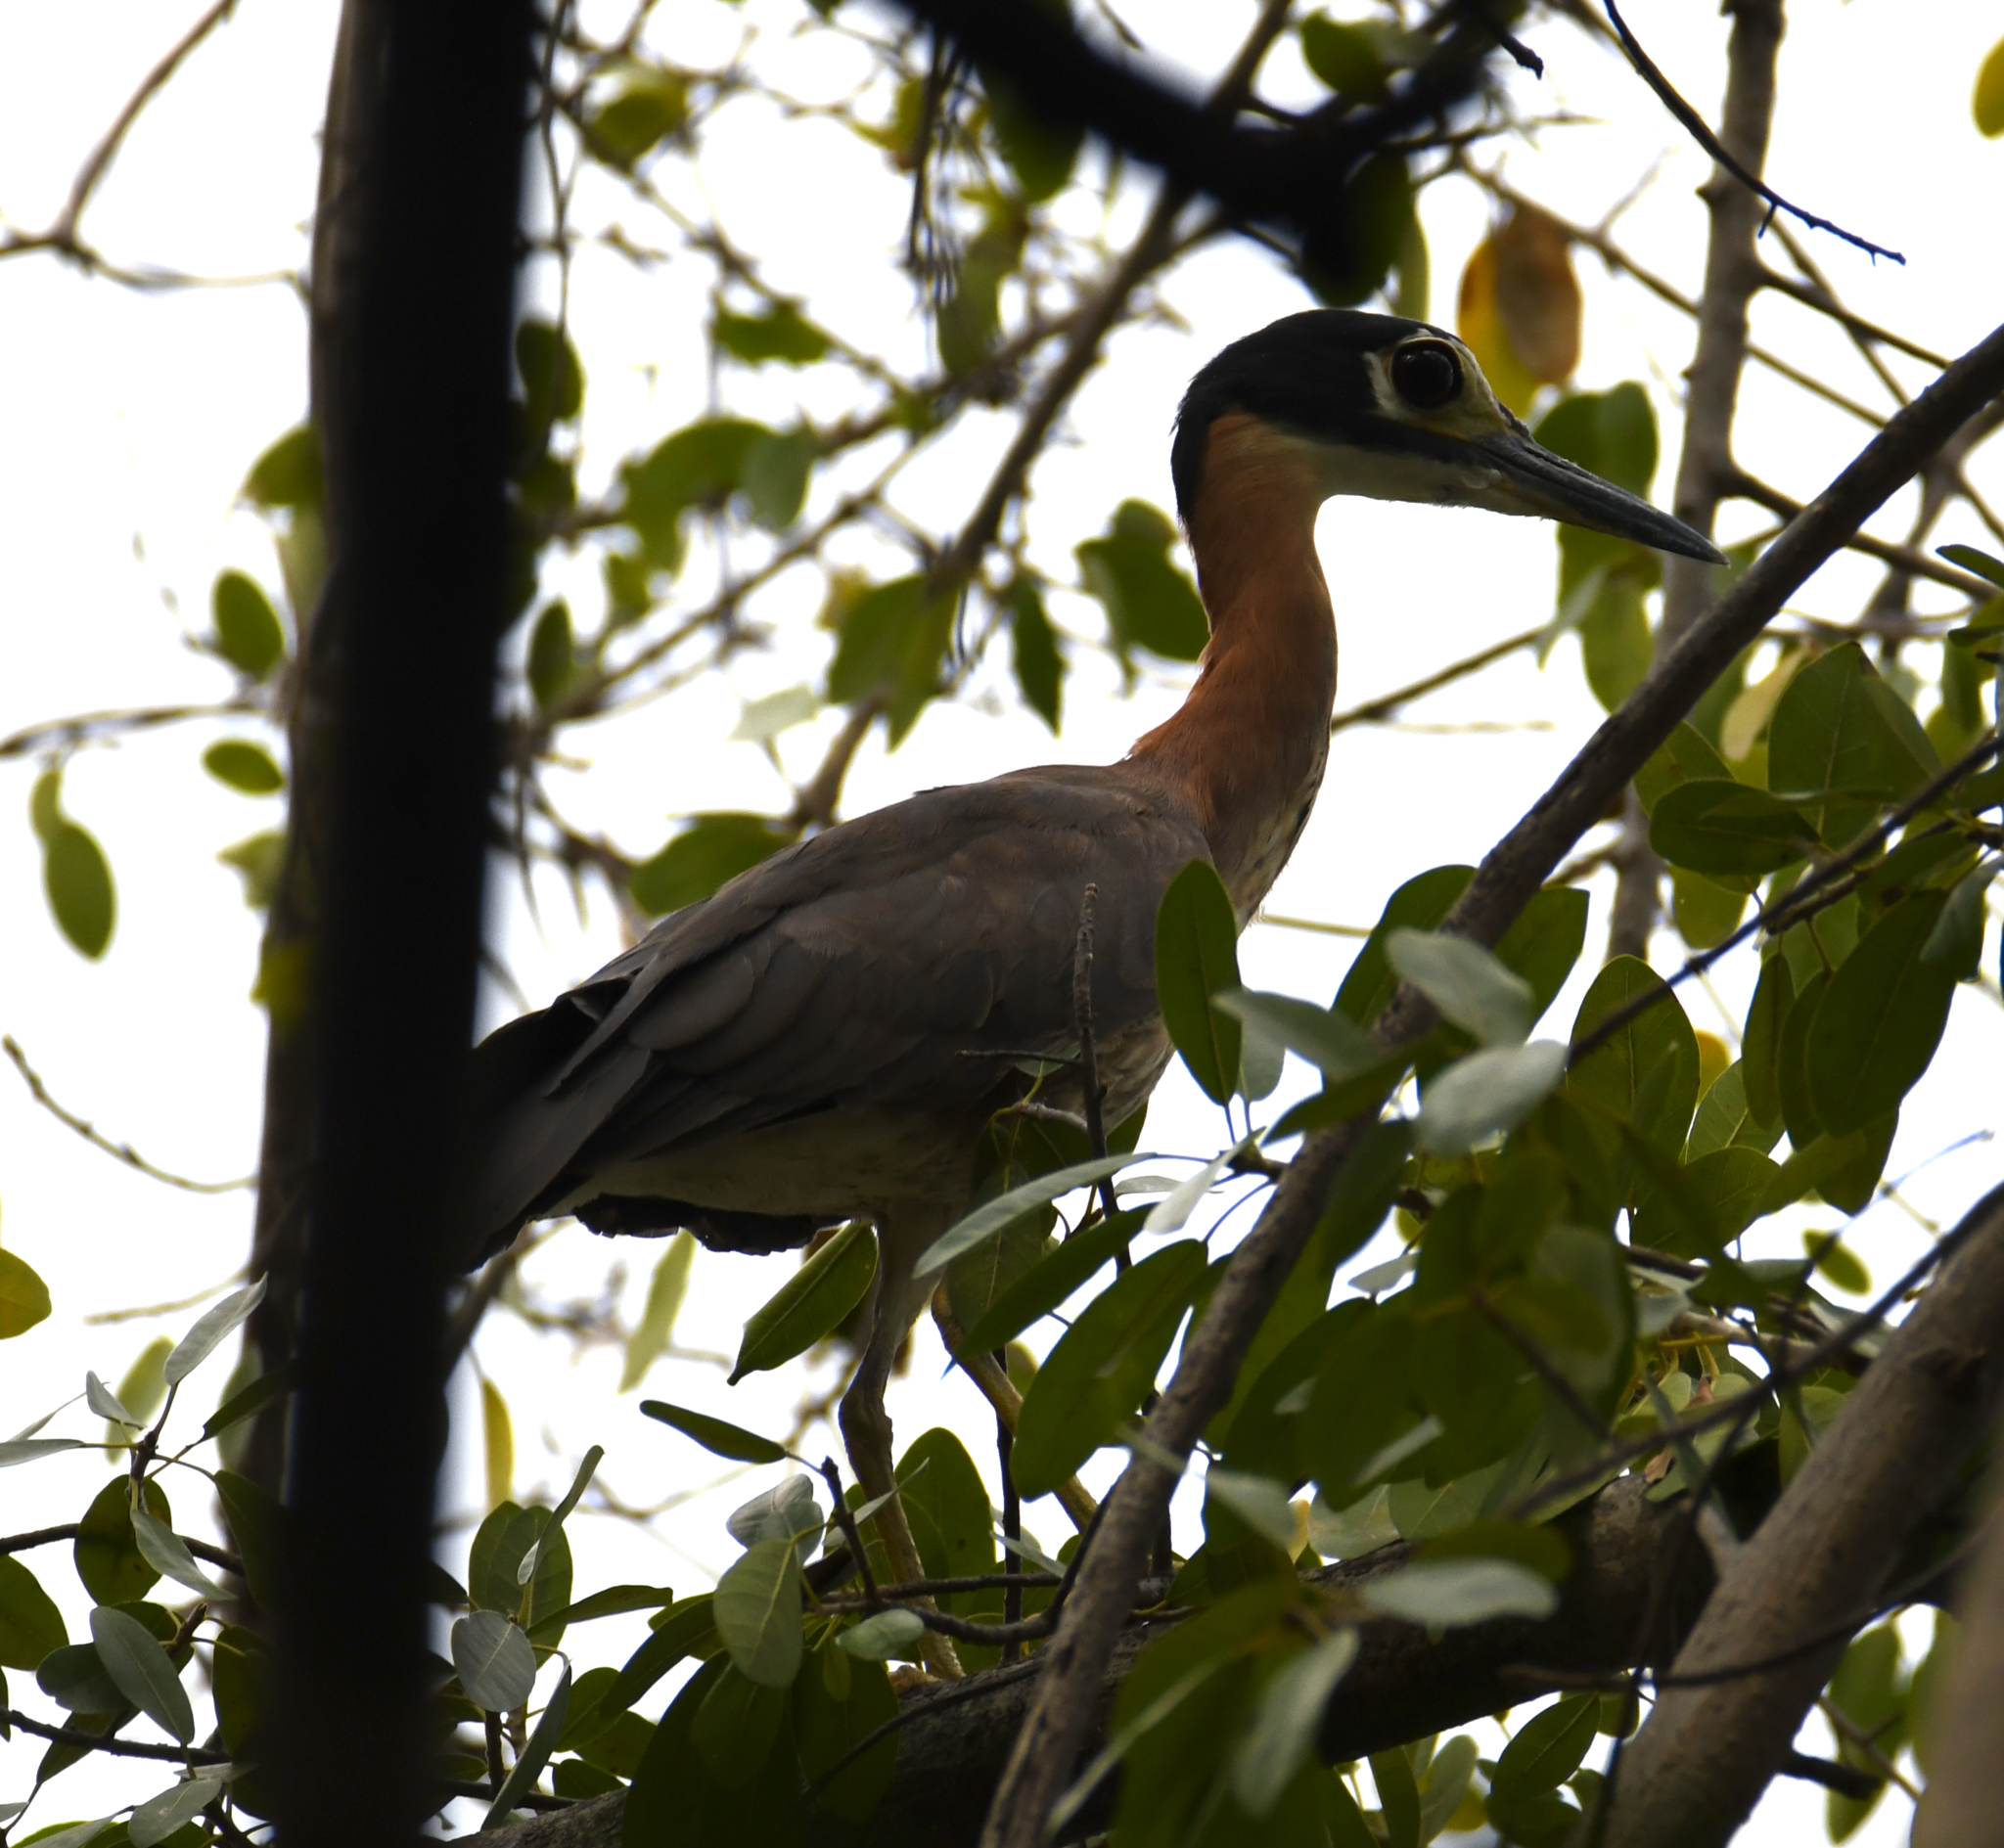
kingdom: Animalia
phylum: Chordata
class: Aves
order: Pelecaniformes
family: Ardeidae
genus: Gorsachius
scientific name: Gorsachius leuconotus
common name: White-backed night heron
